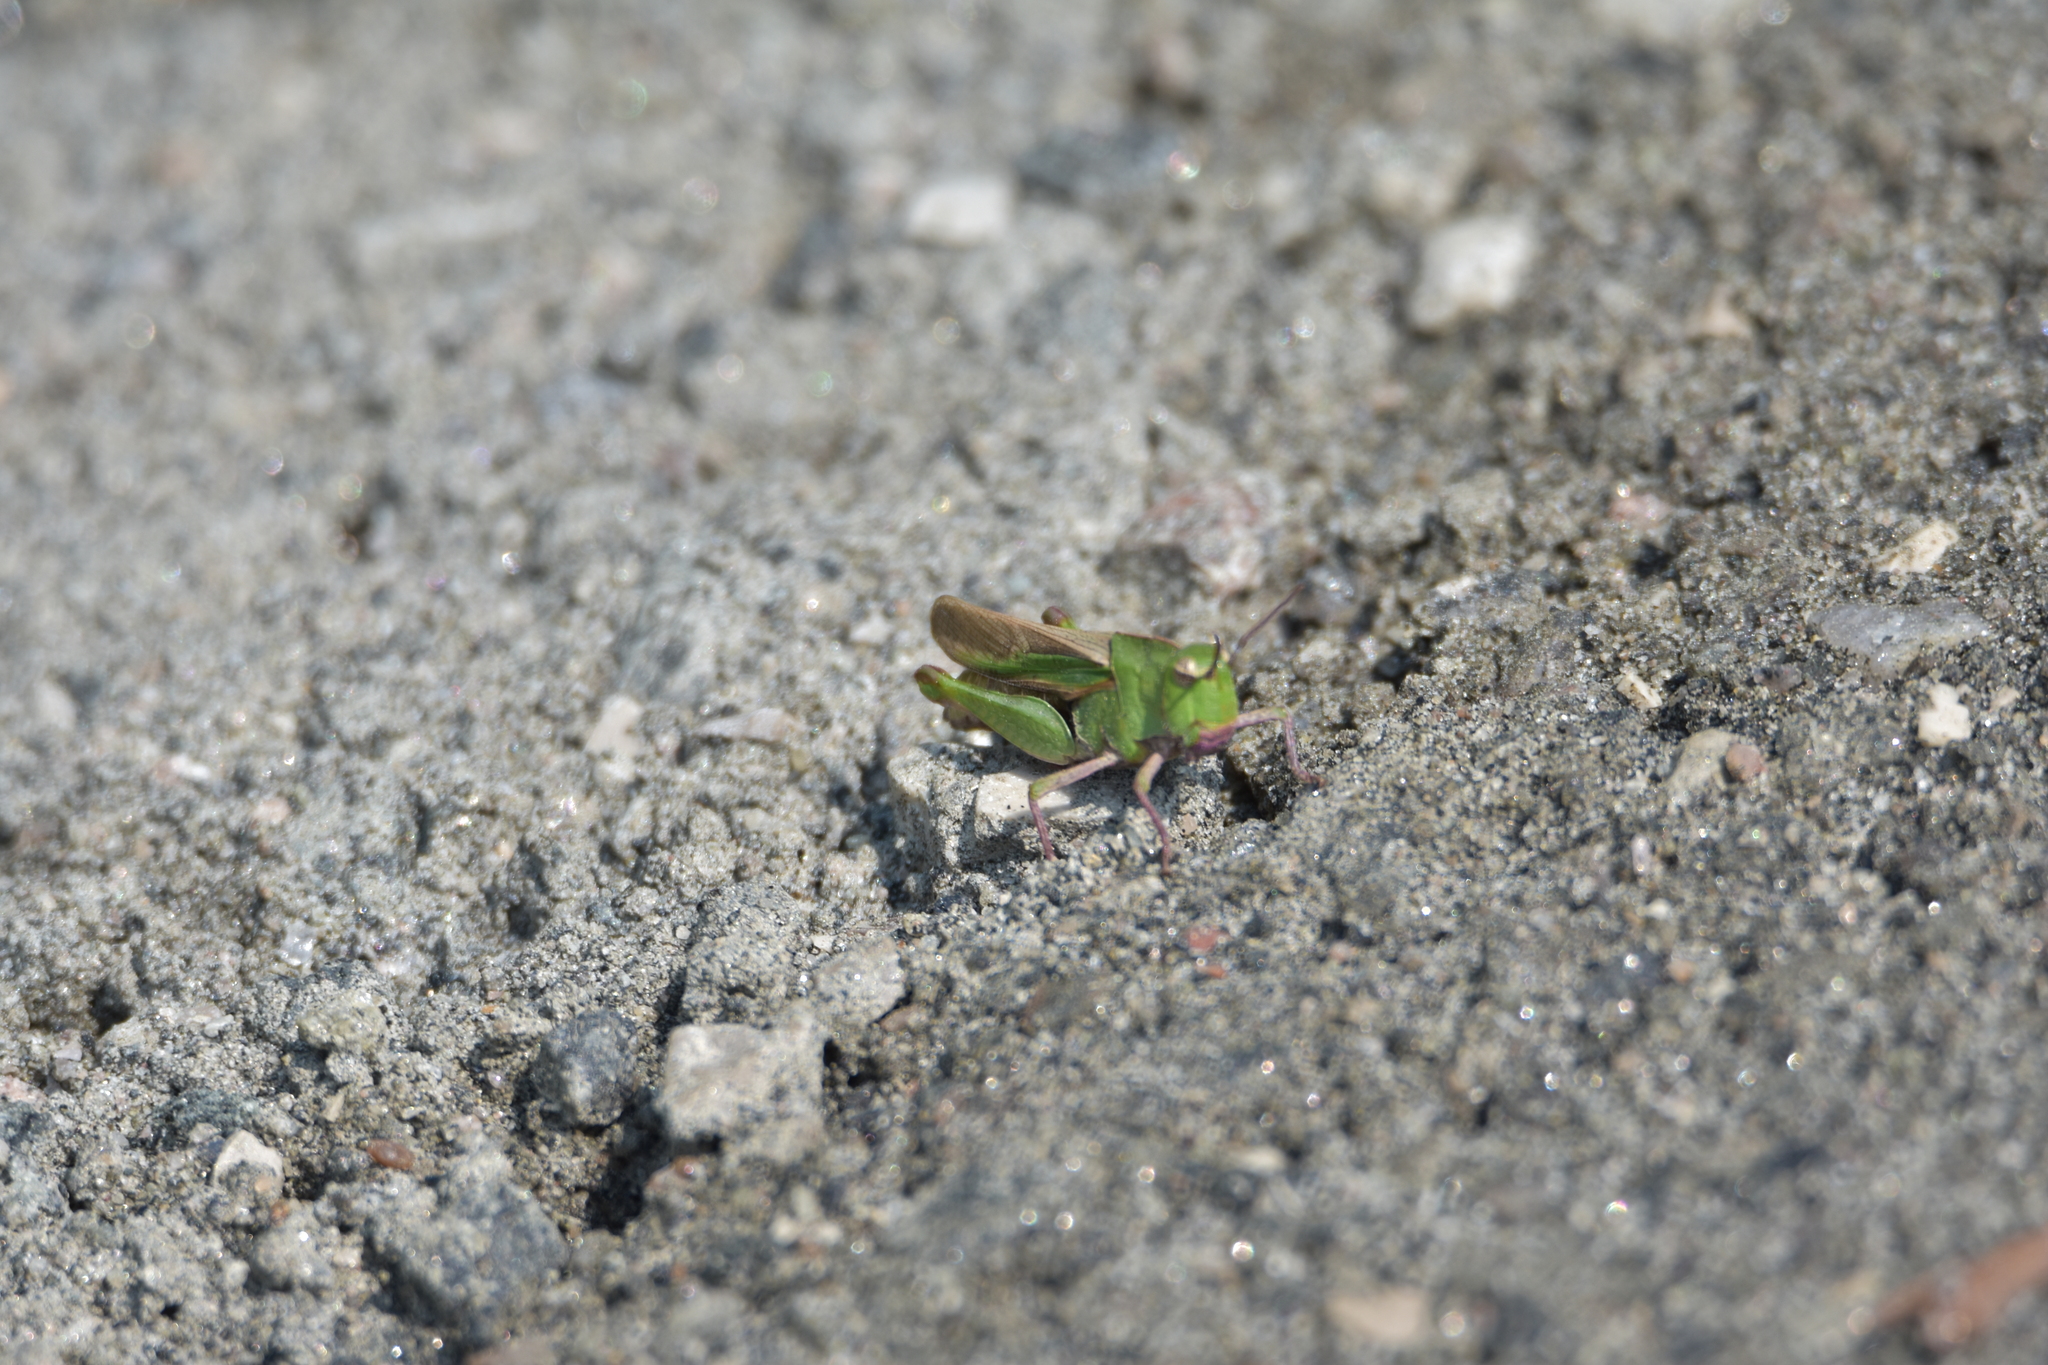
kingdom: Animalia
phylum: Arthropoda
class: Insecta
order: Orthoptera
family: Acrididae
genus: Chortophaga
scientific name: Chortophaga viridifasciata
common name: Green-striped grasshopper
